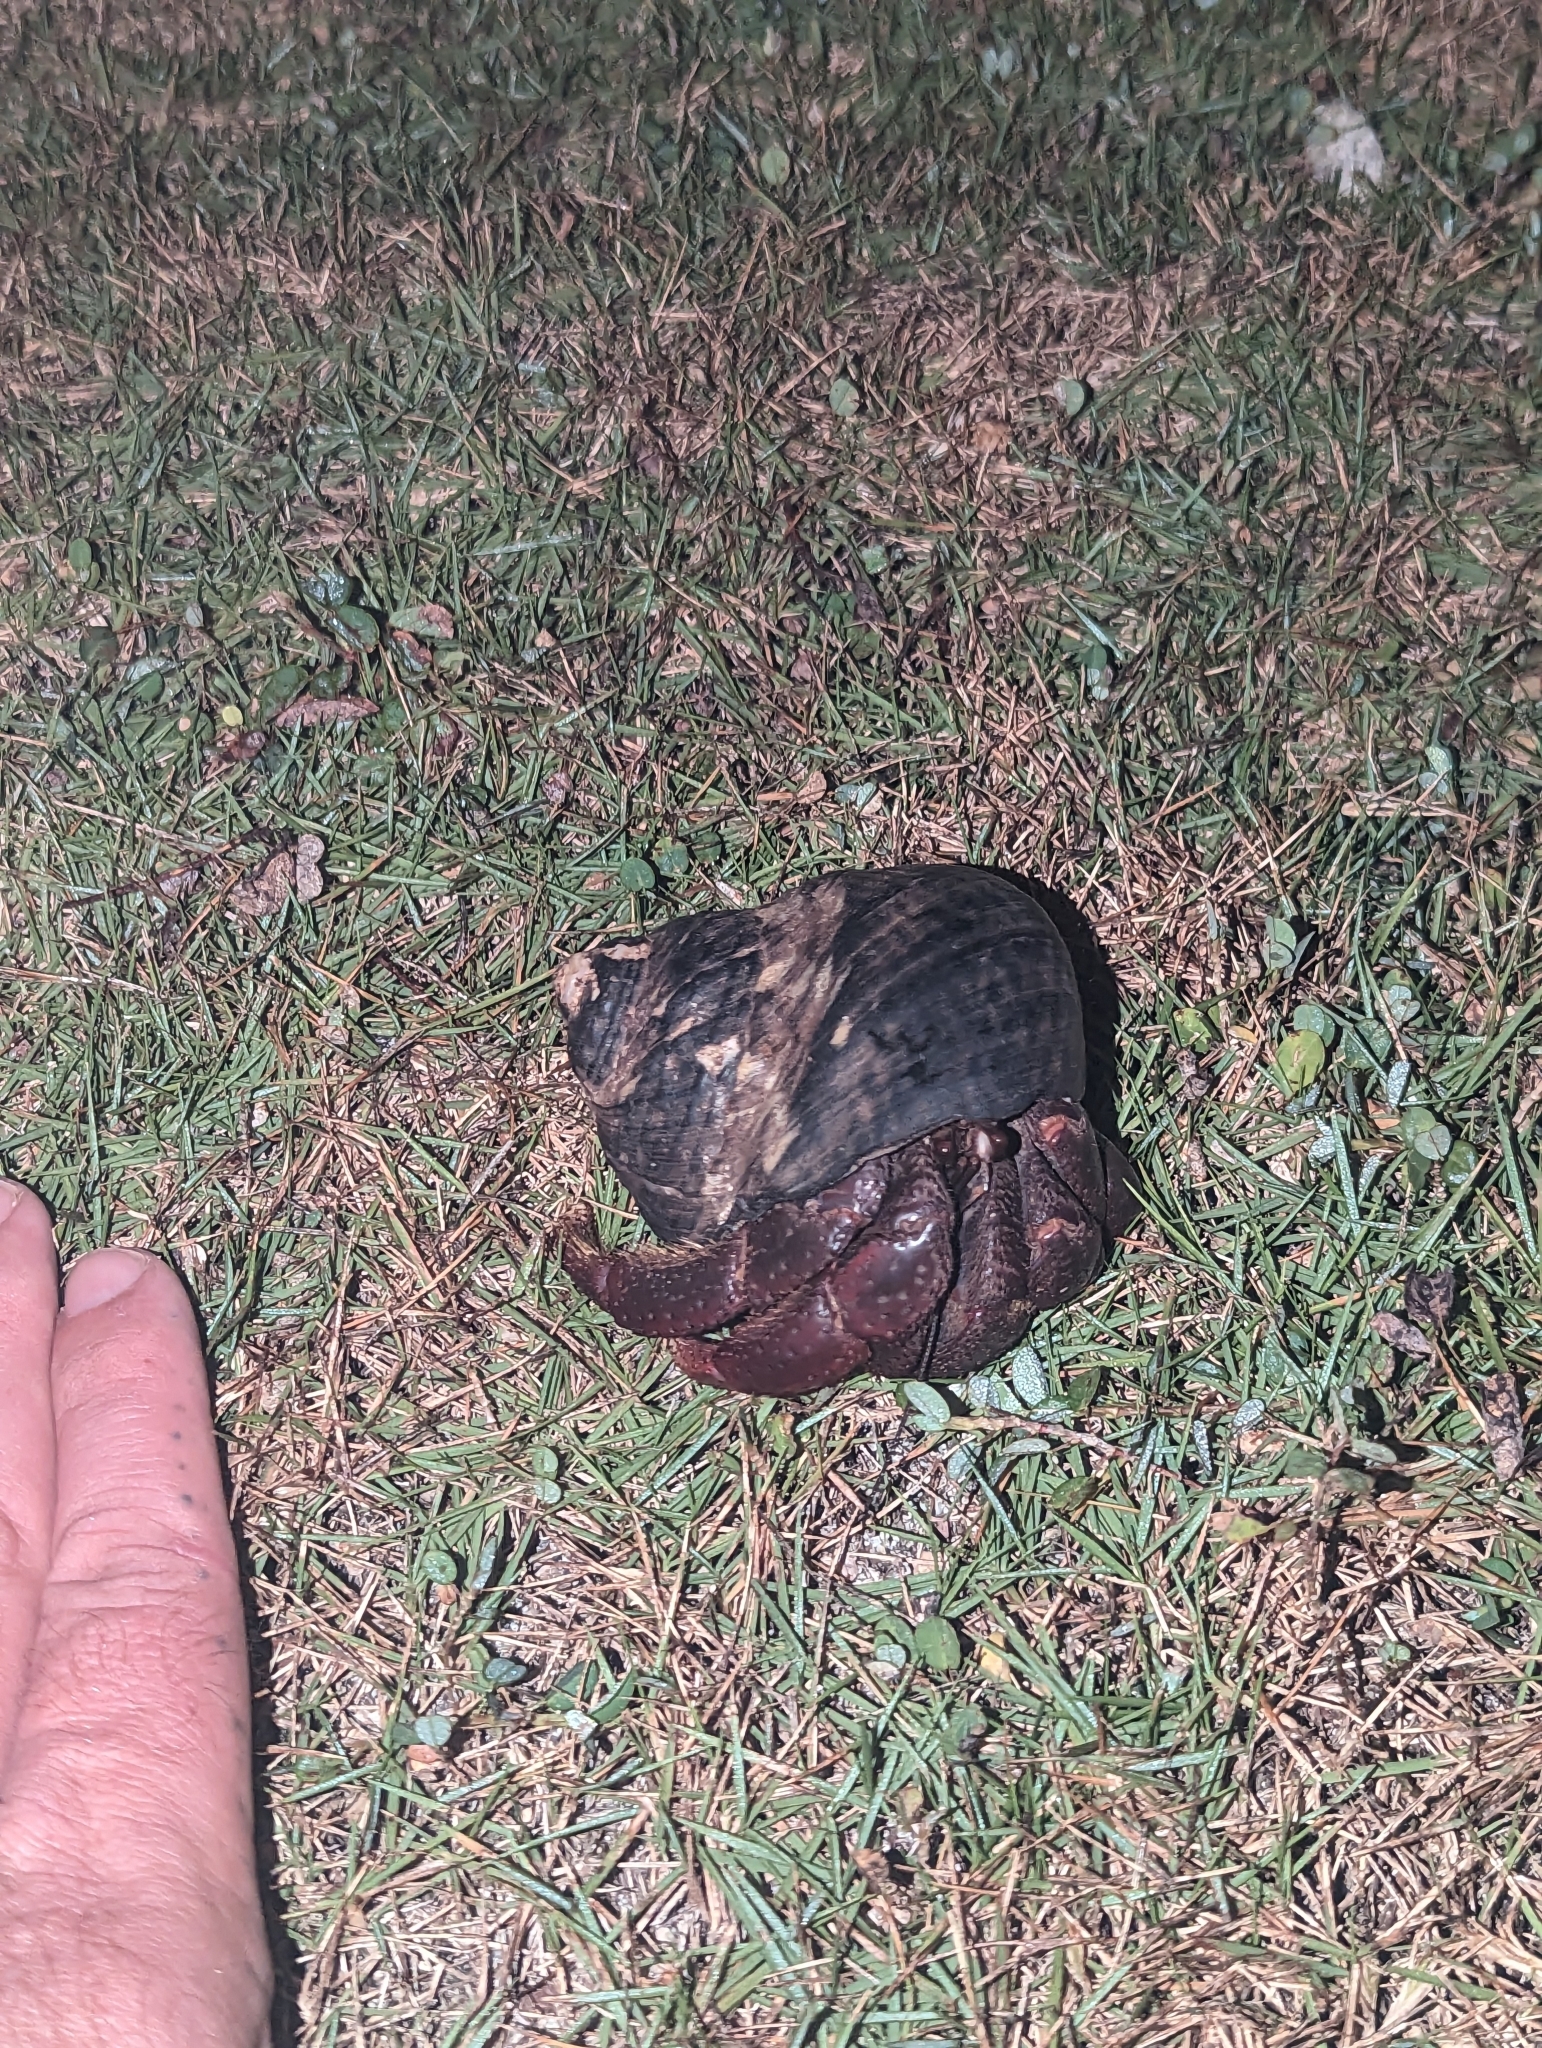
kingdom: Animalia
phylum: Arthropoda
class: Malacostraca
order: Decapoda
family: Coenobitidae
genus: Coenobita
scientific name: Coenobita clypeatus
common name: Caribbean hermit crab
